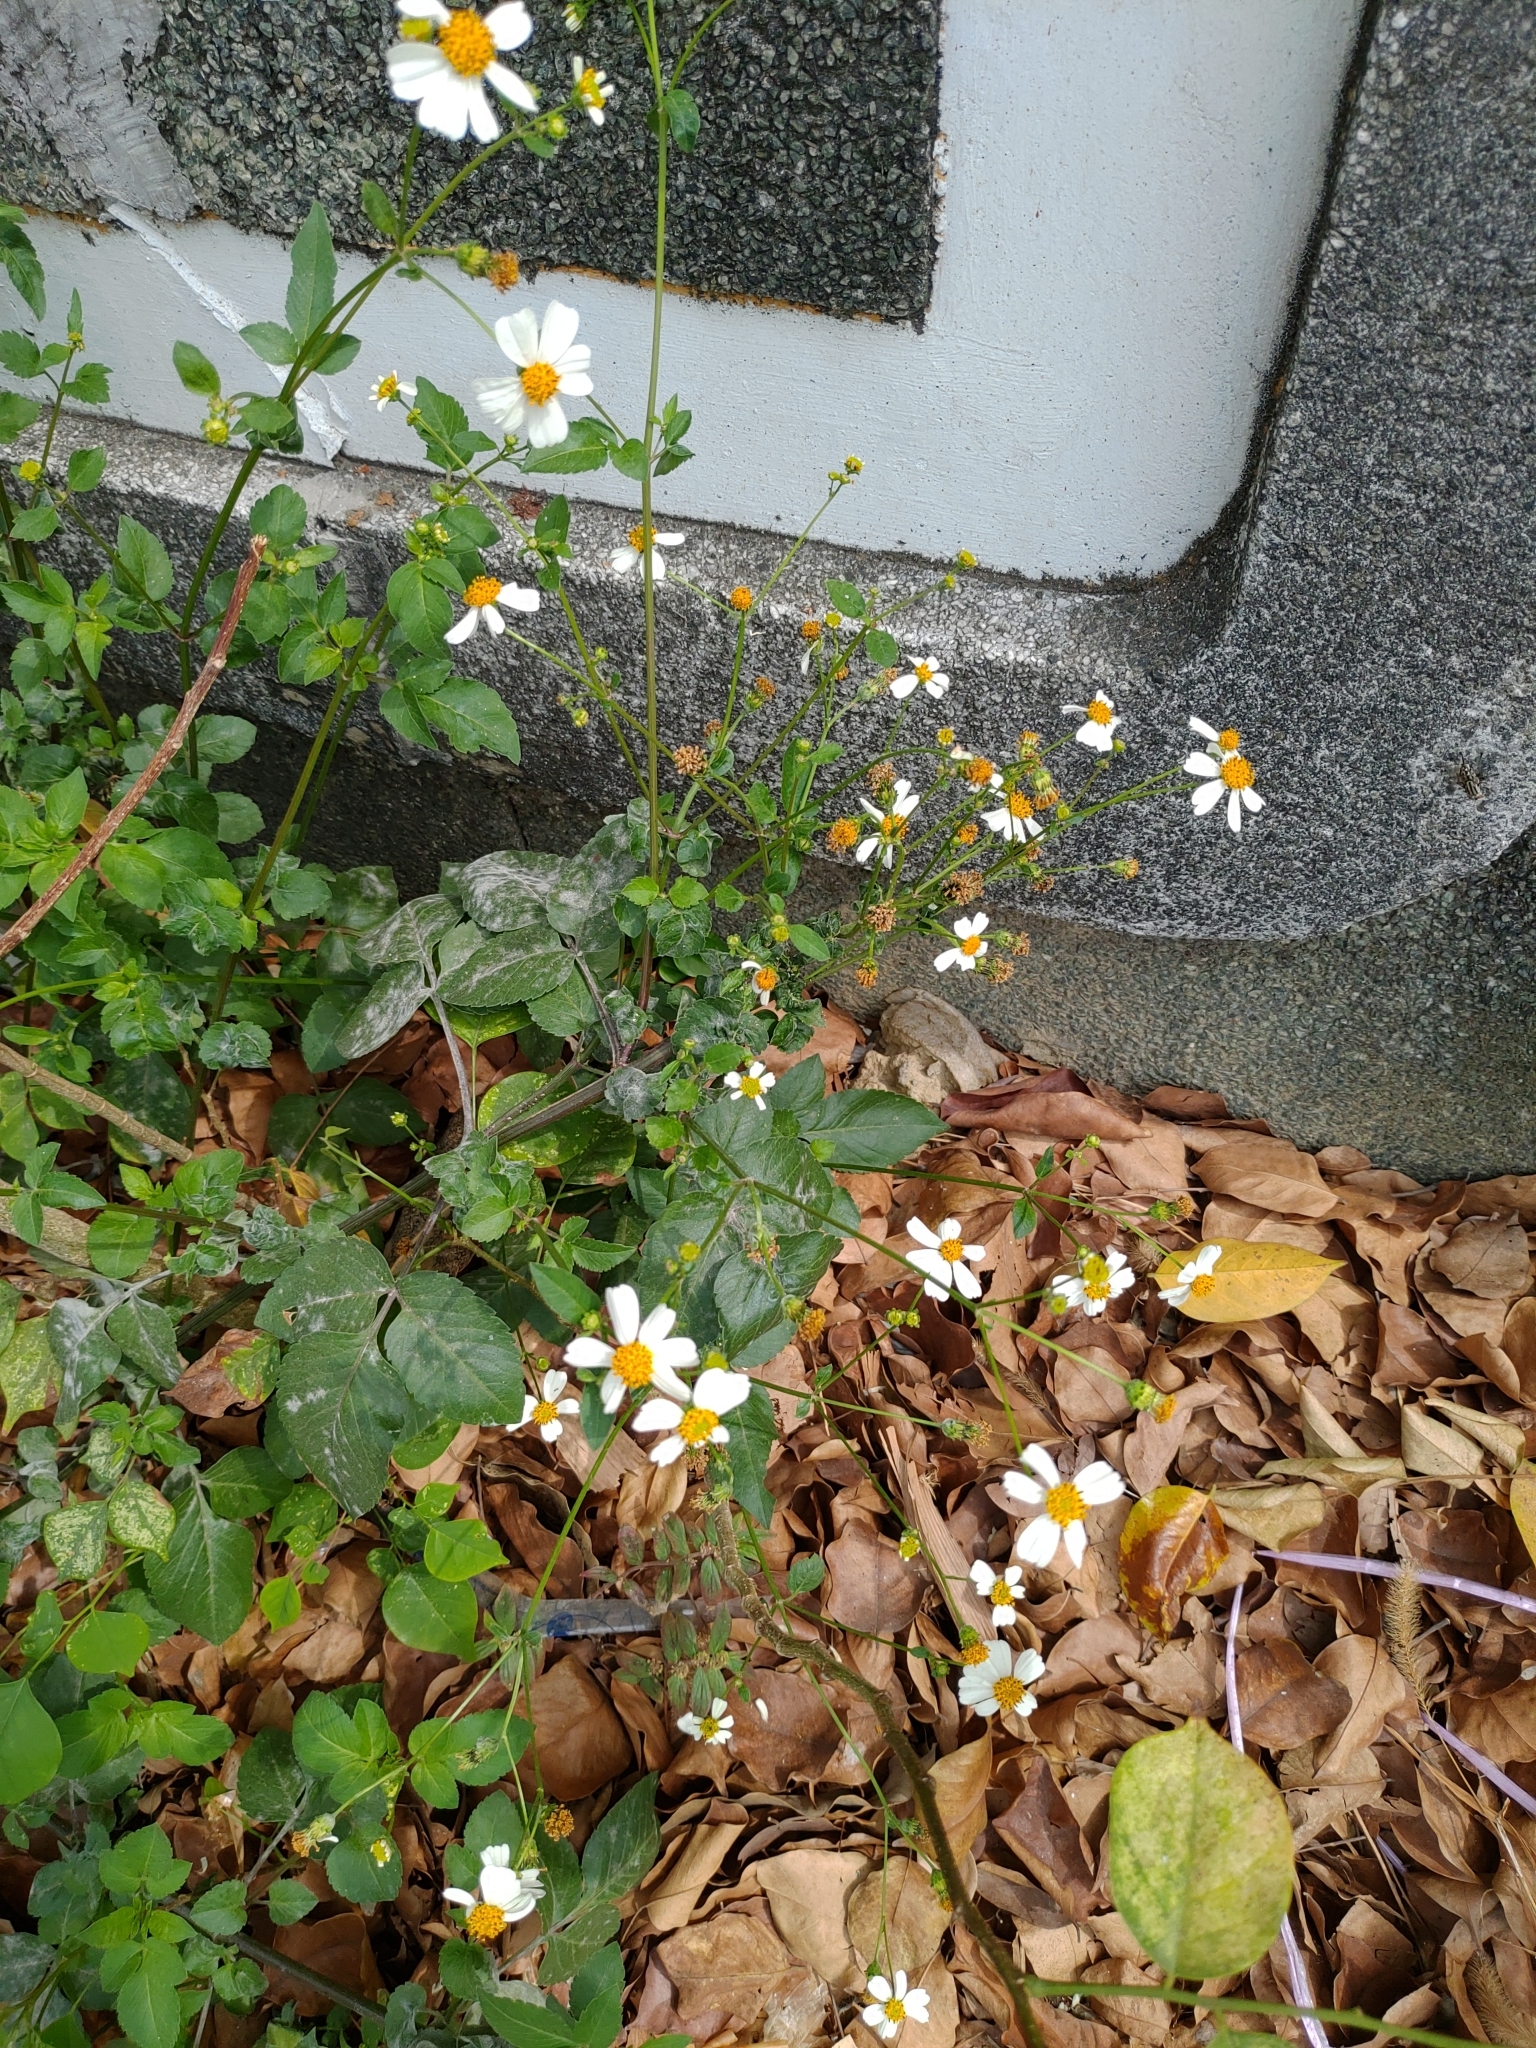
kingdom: Plantae
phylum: Tracheophyta
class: Magnoliopsida
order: Asterales
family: Asteraceae
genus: Bidens
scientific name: Bidens alba
